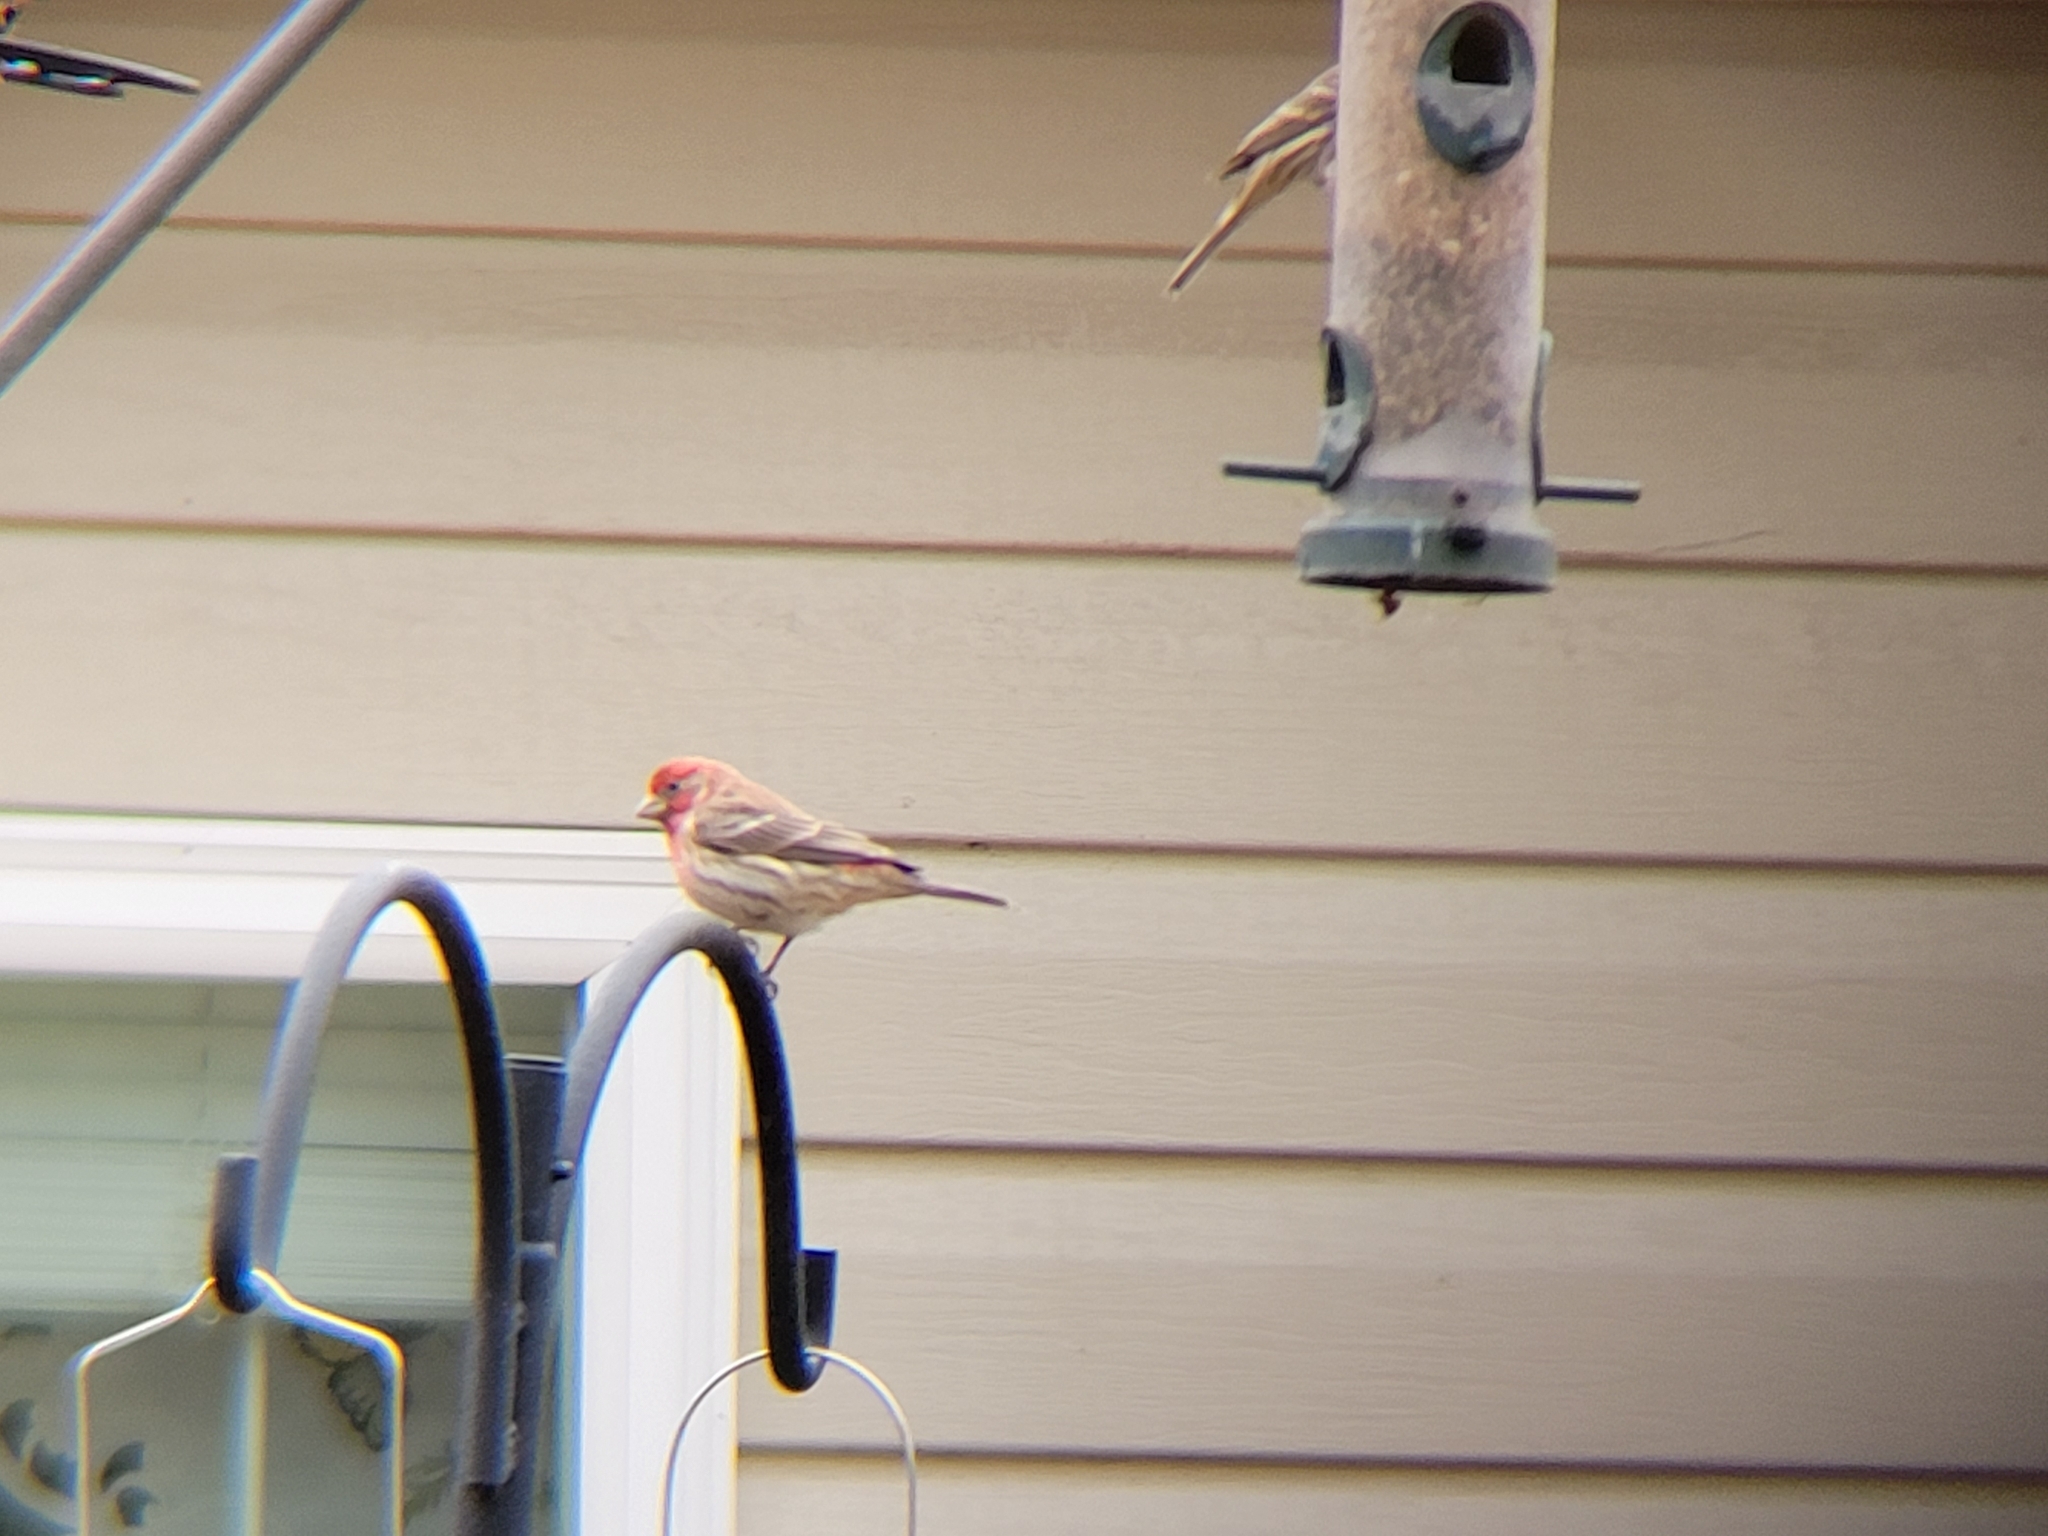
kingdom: Animalia
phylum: Chordata
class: Aves
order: Passeriformes
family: Fringillidae
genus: Haemorhous
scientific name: Haemorhous mexicanus
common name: House finch
